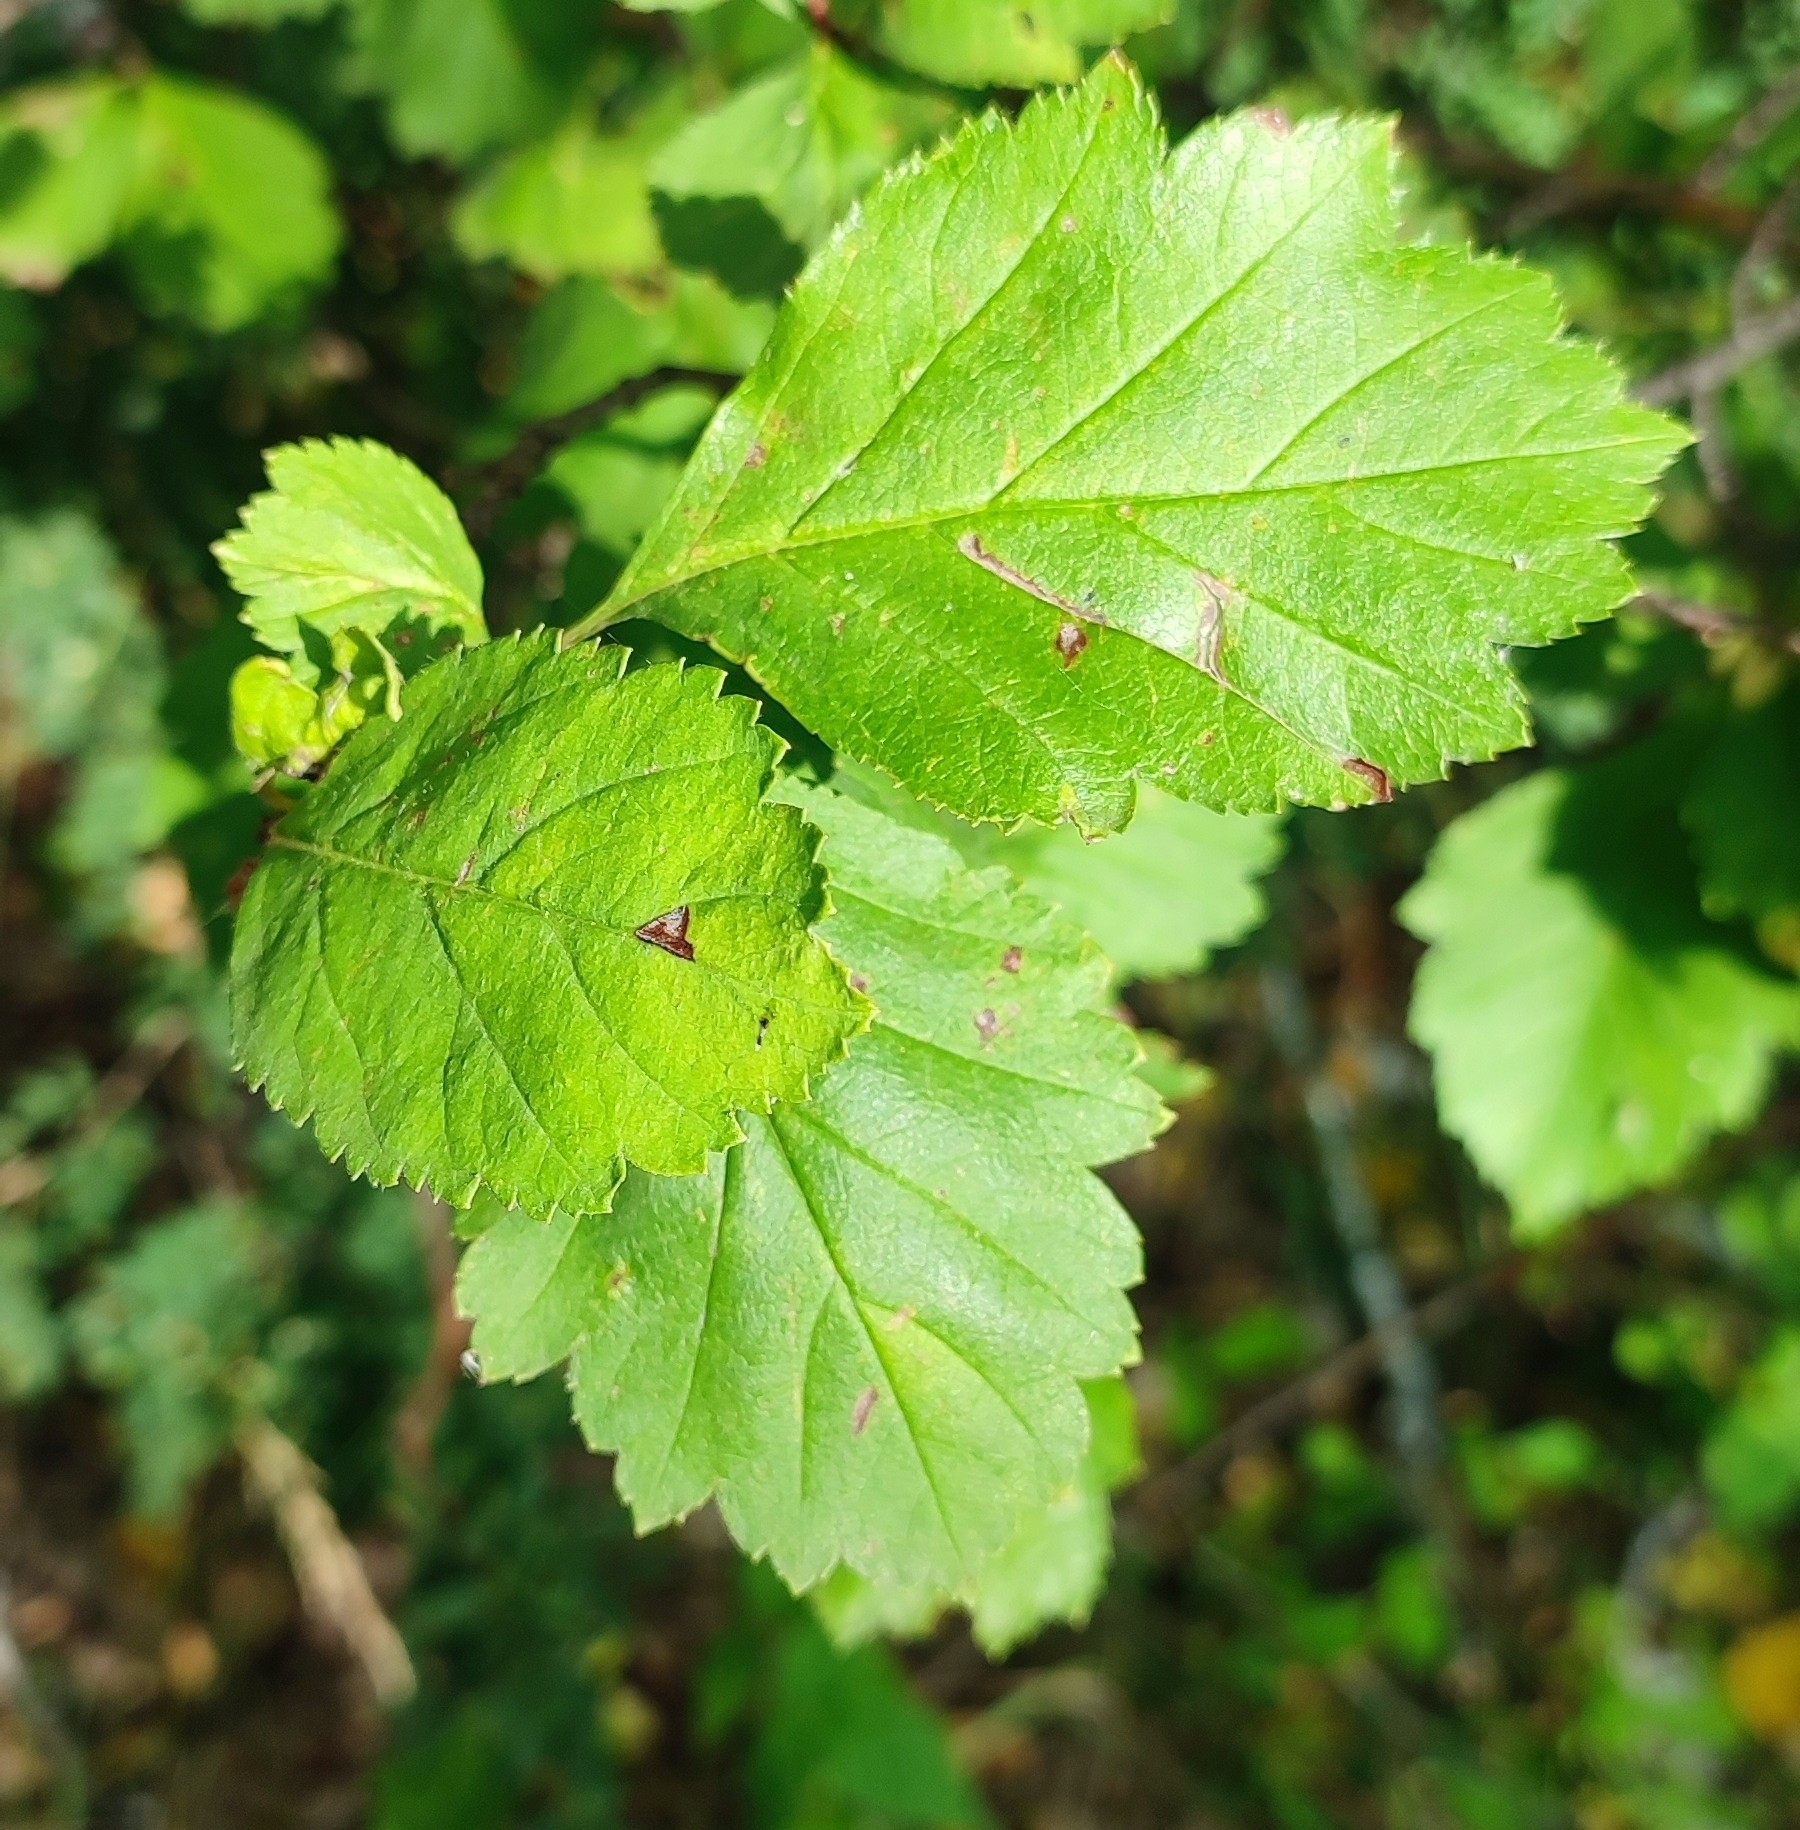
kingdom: Plantae
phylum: Tracheophyta
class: Magnoliopsida
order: Rosales
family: Rosaceae
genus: Crataegus
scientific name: Crataegus sanguinea
